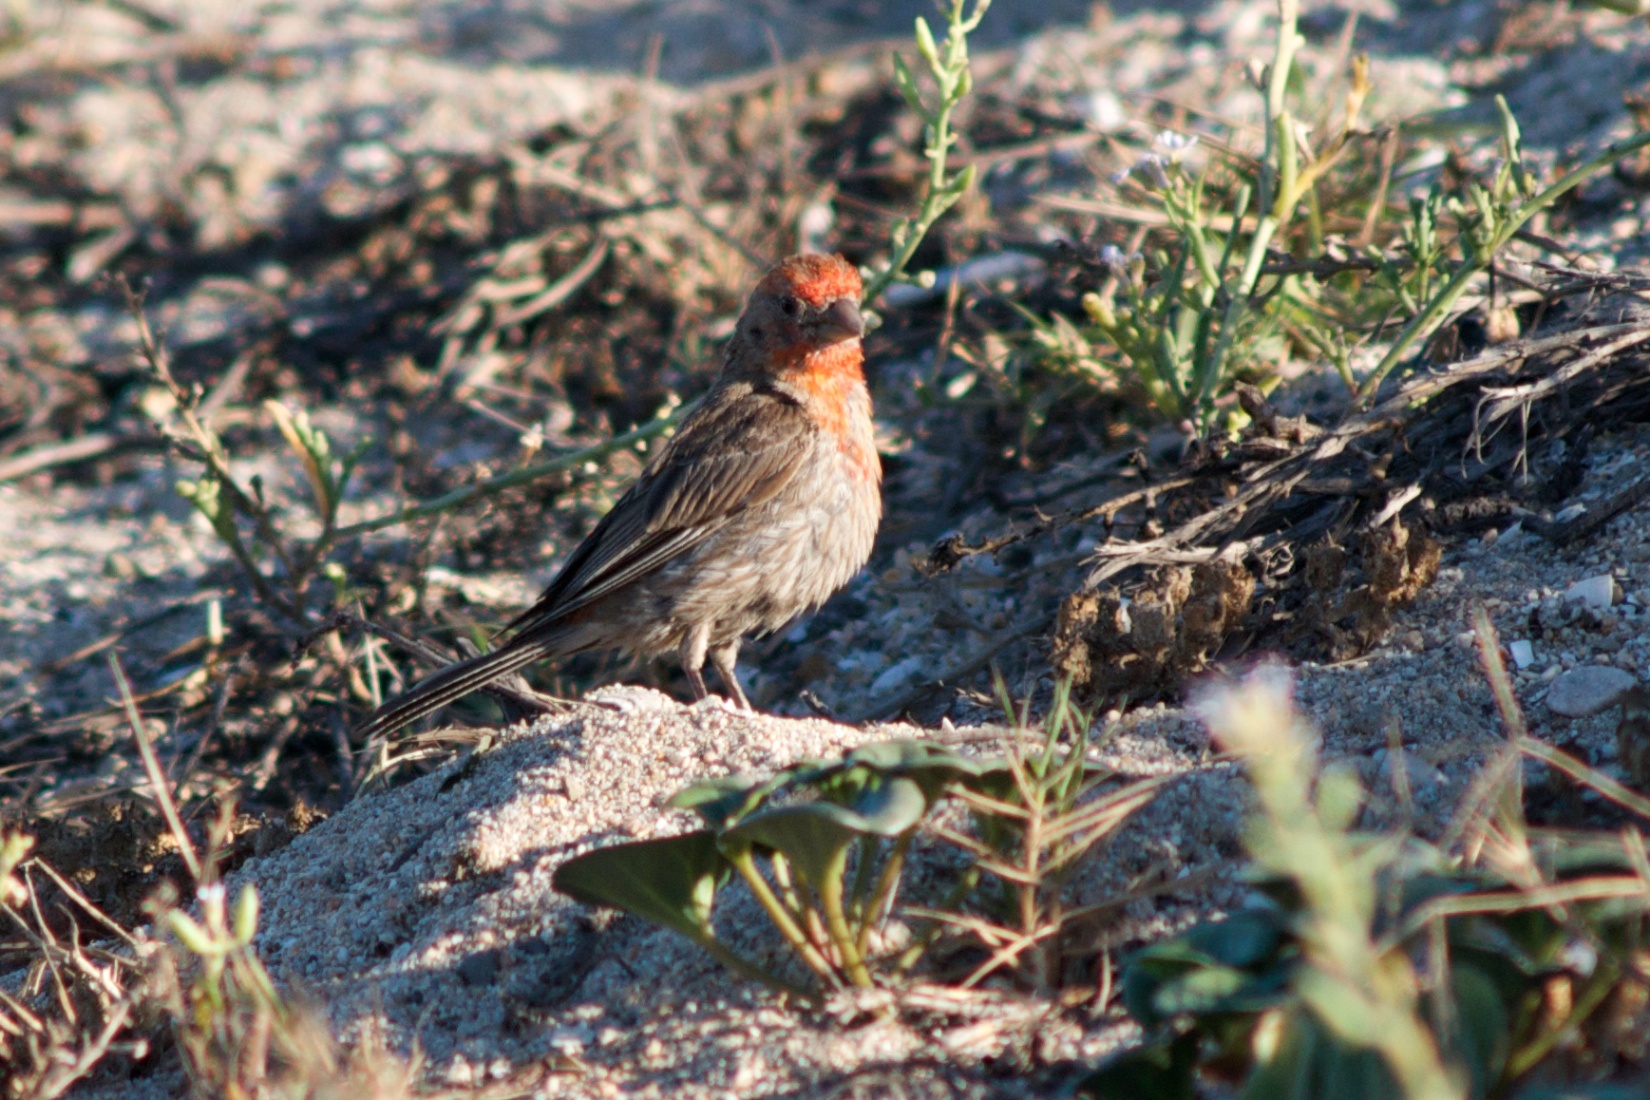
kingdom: Animalia
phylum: Chordata
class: Aves
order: Passeriformes
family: Fringillidae
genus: Haemorhous
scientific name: Haemorhous mexicanus
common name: House finch
